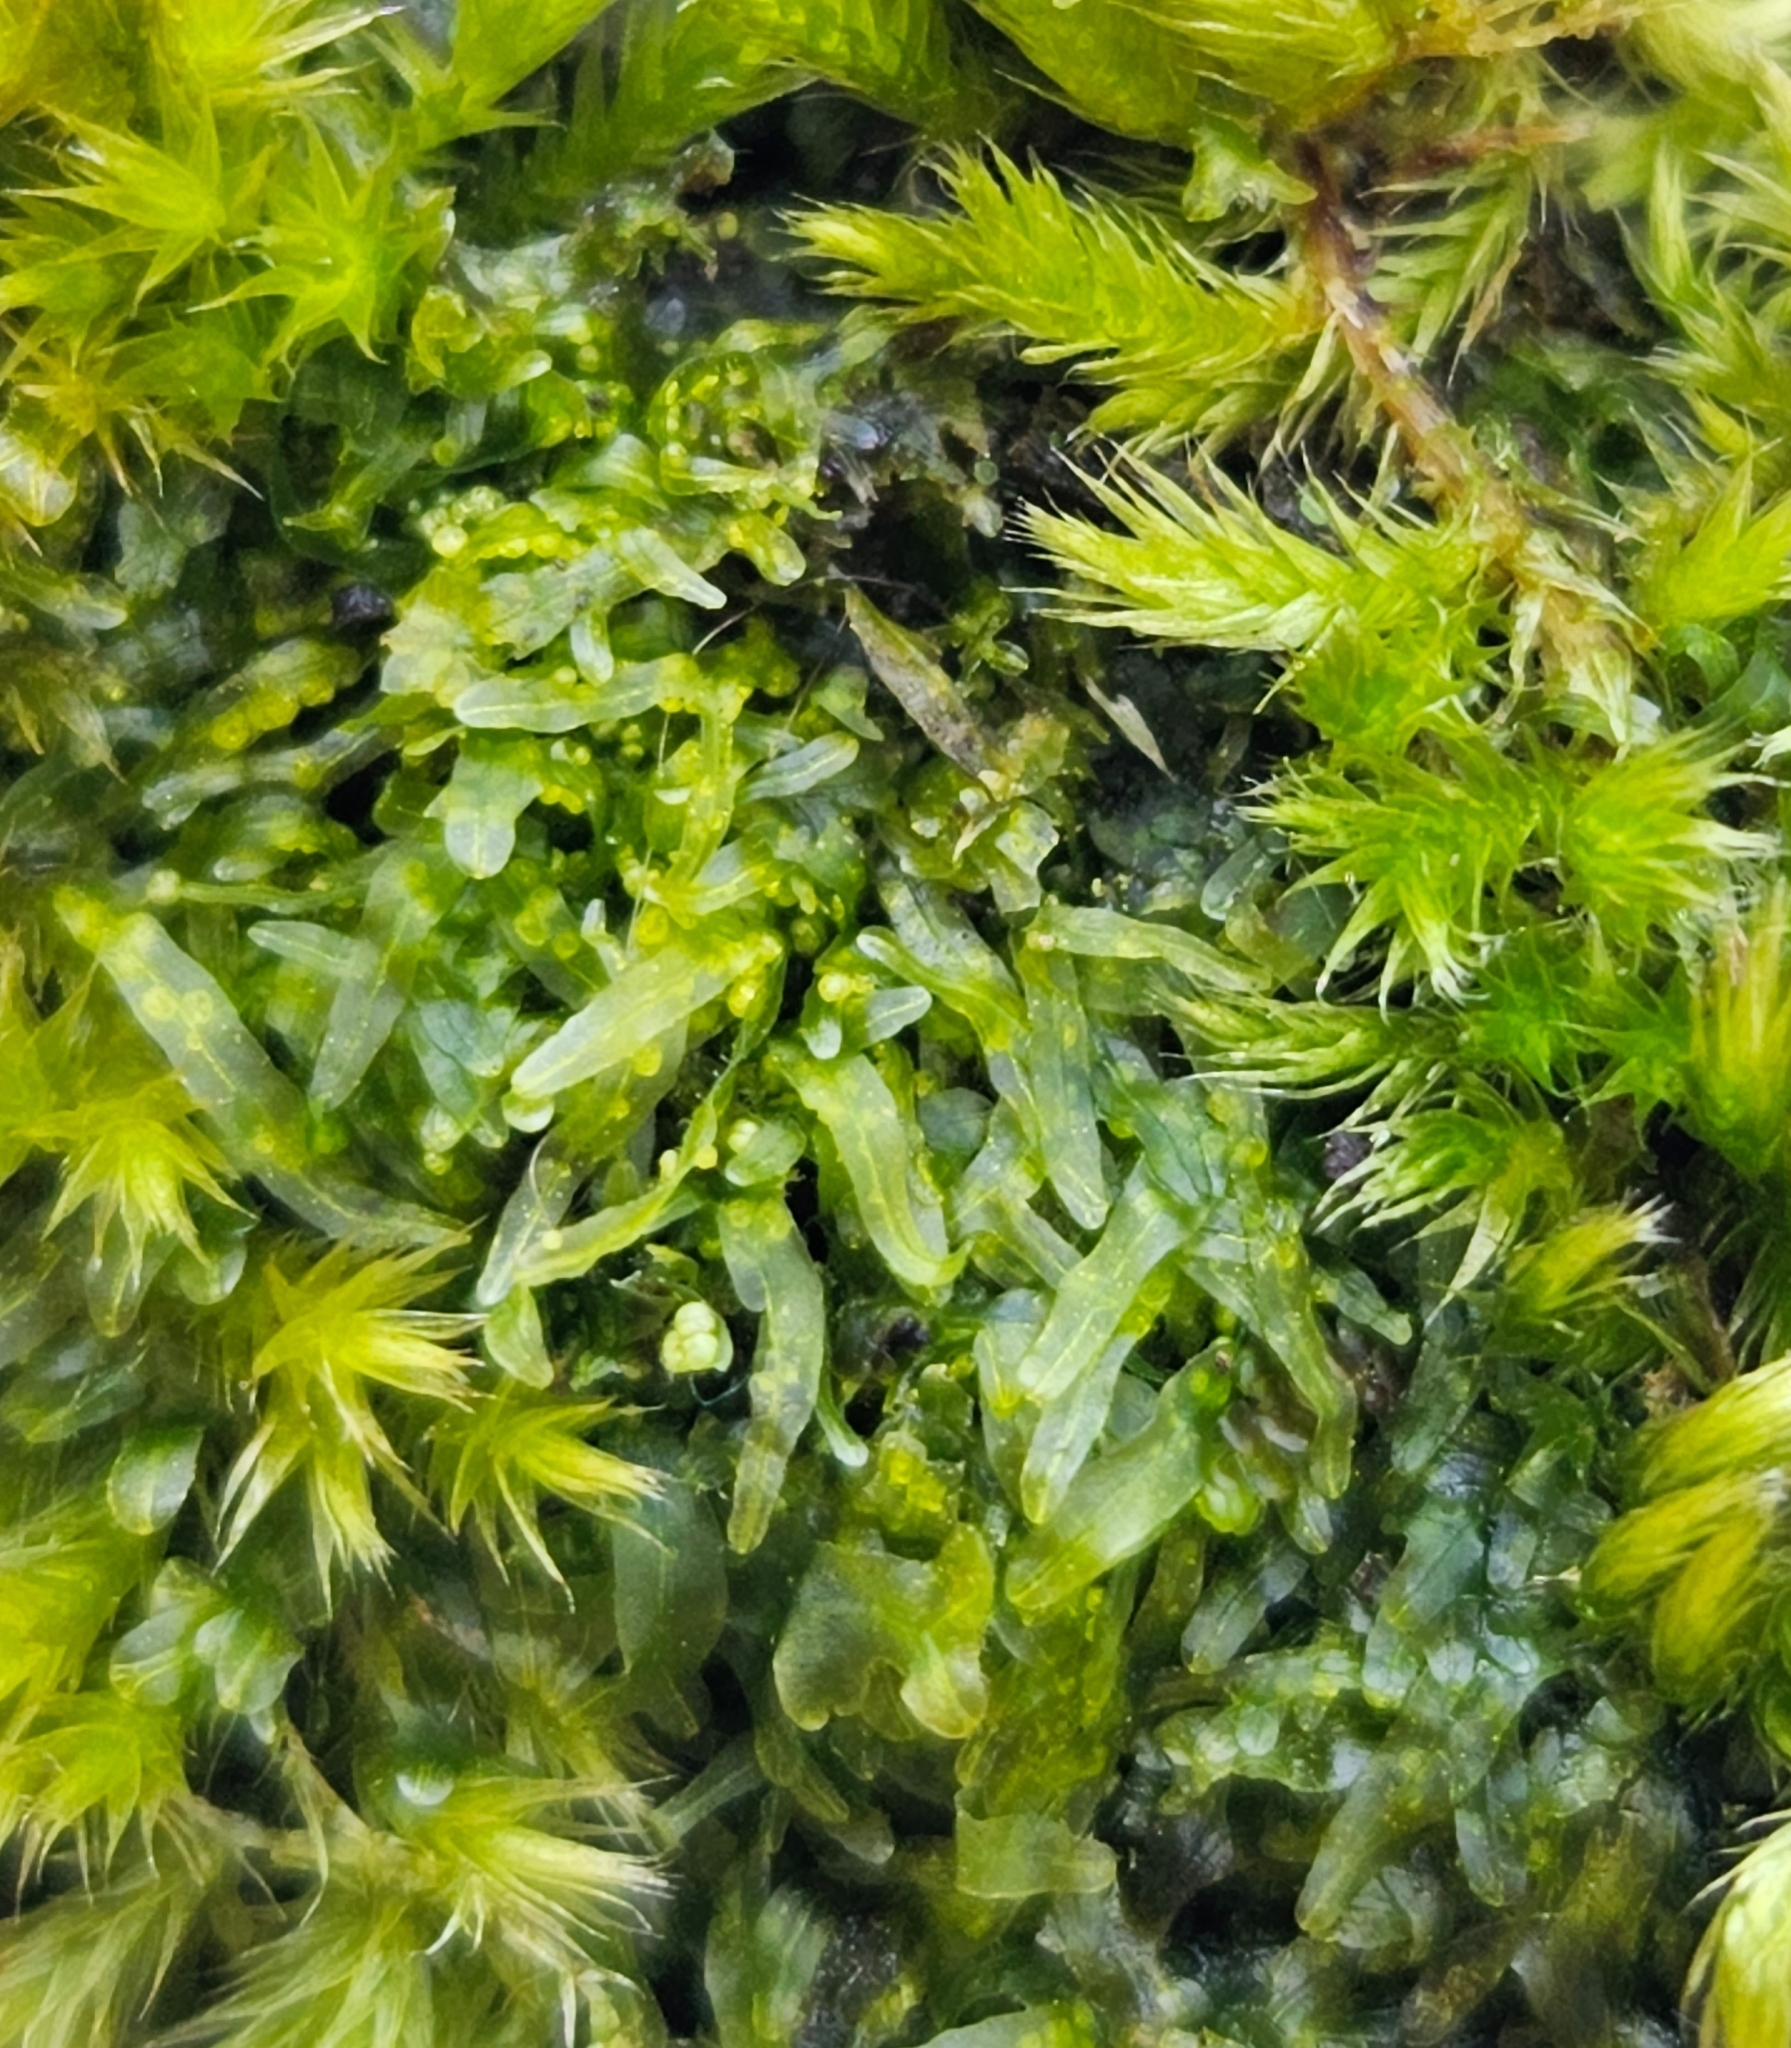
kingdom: Plantae
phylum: Marchantiophyta
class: Jungermanniopsida
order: Metzgeriales
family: Metzgeriaceae
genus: Metzgeria
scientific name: Metzgeria furcata
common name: Forked veilwort
